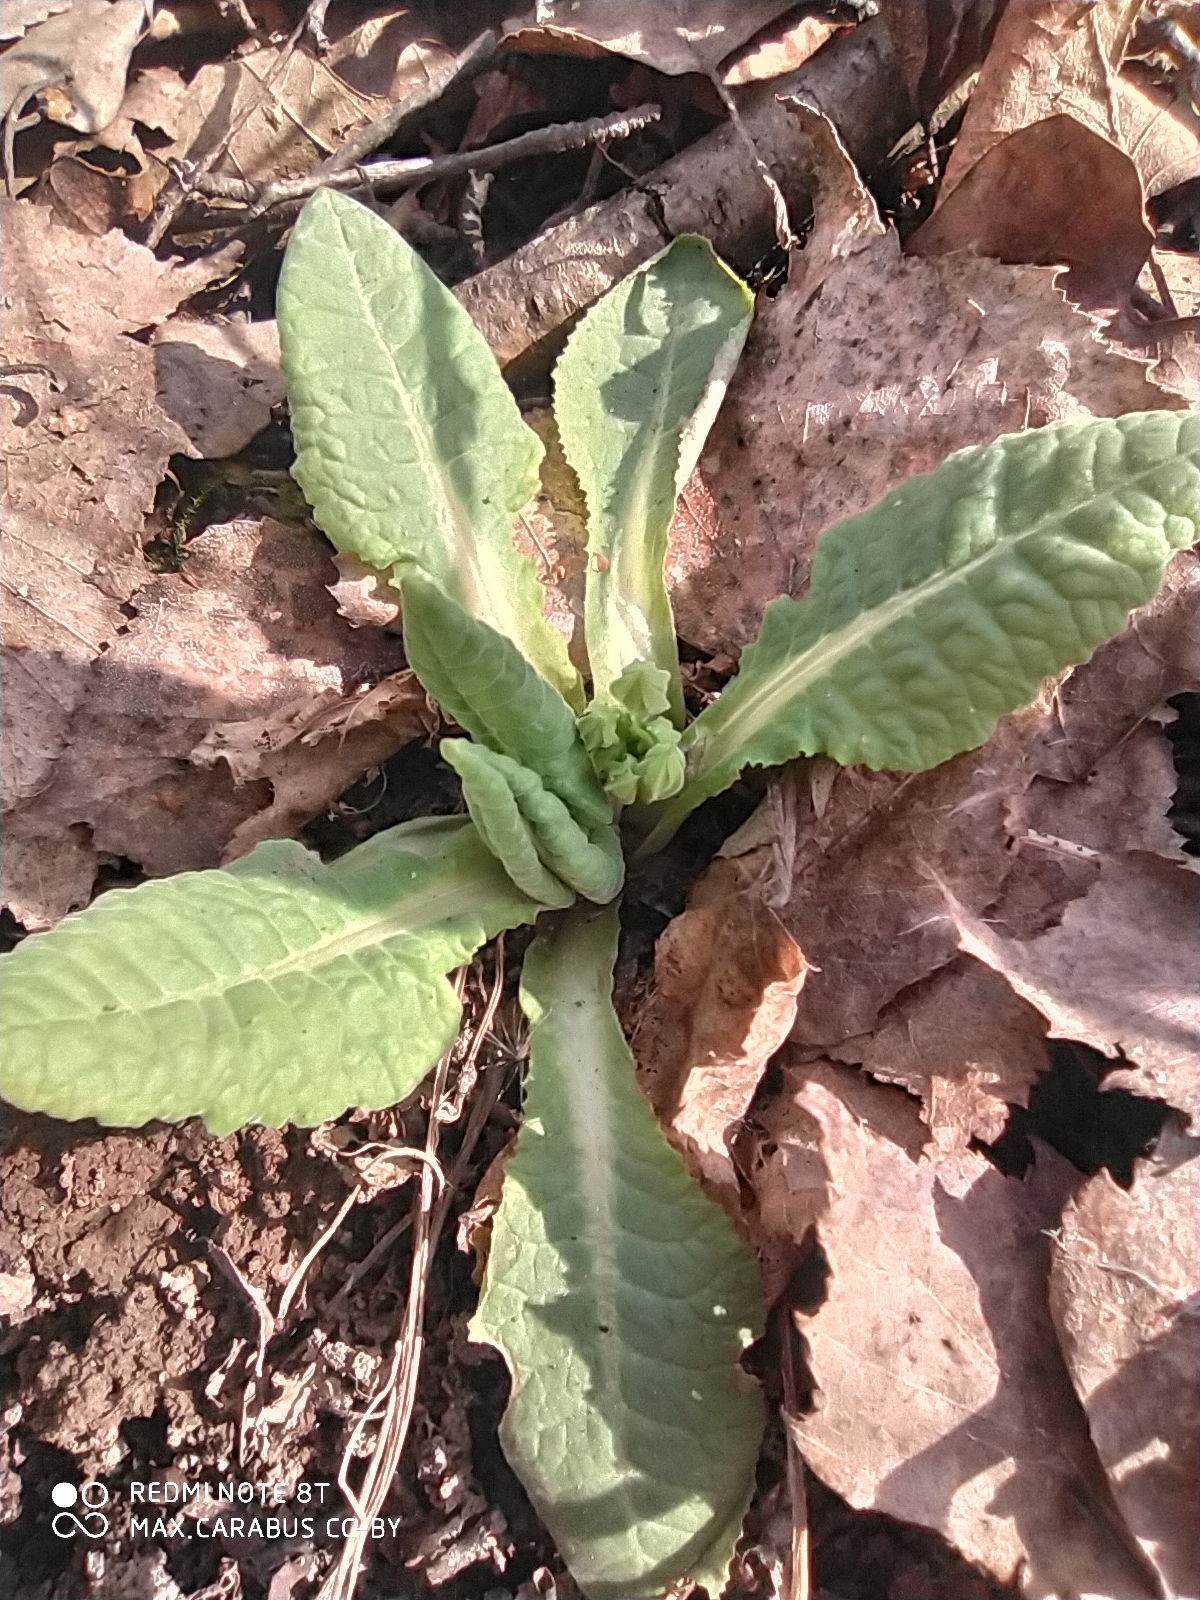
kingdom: Plantae
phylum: Tracheophyta
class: Magnoliopsida
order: Ericales
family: Primulaceae
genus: Primula
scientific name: Primula veris
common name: Cowslip
